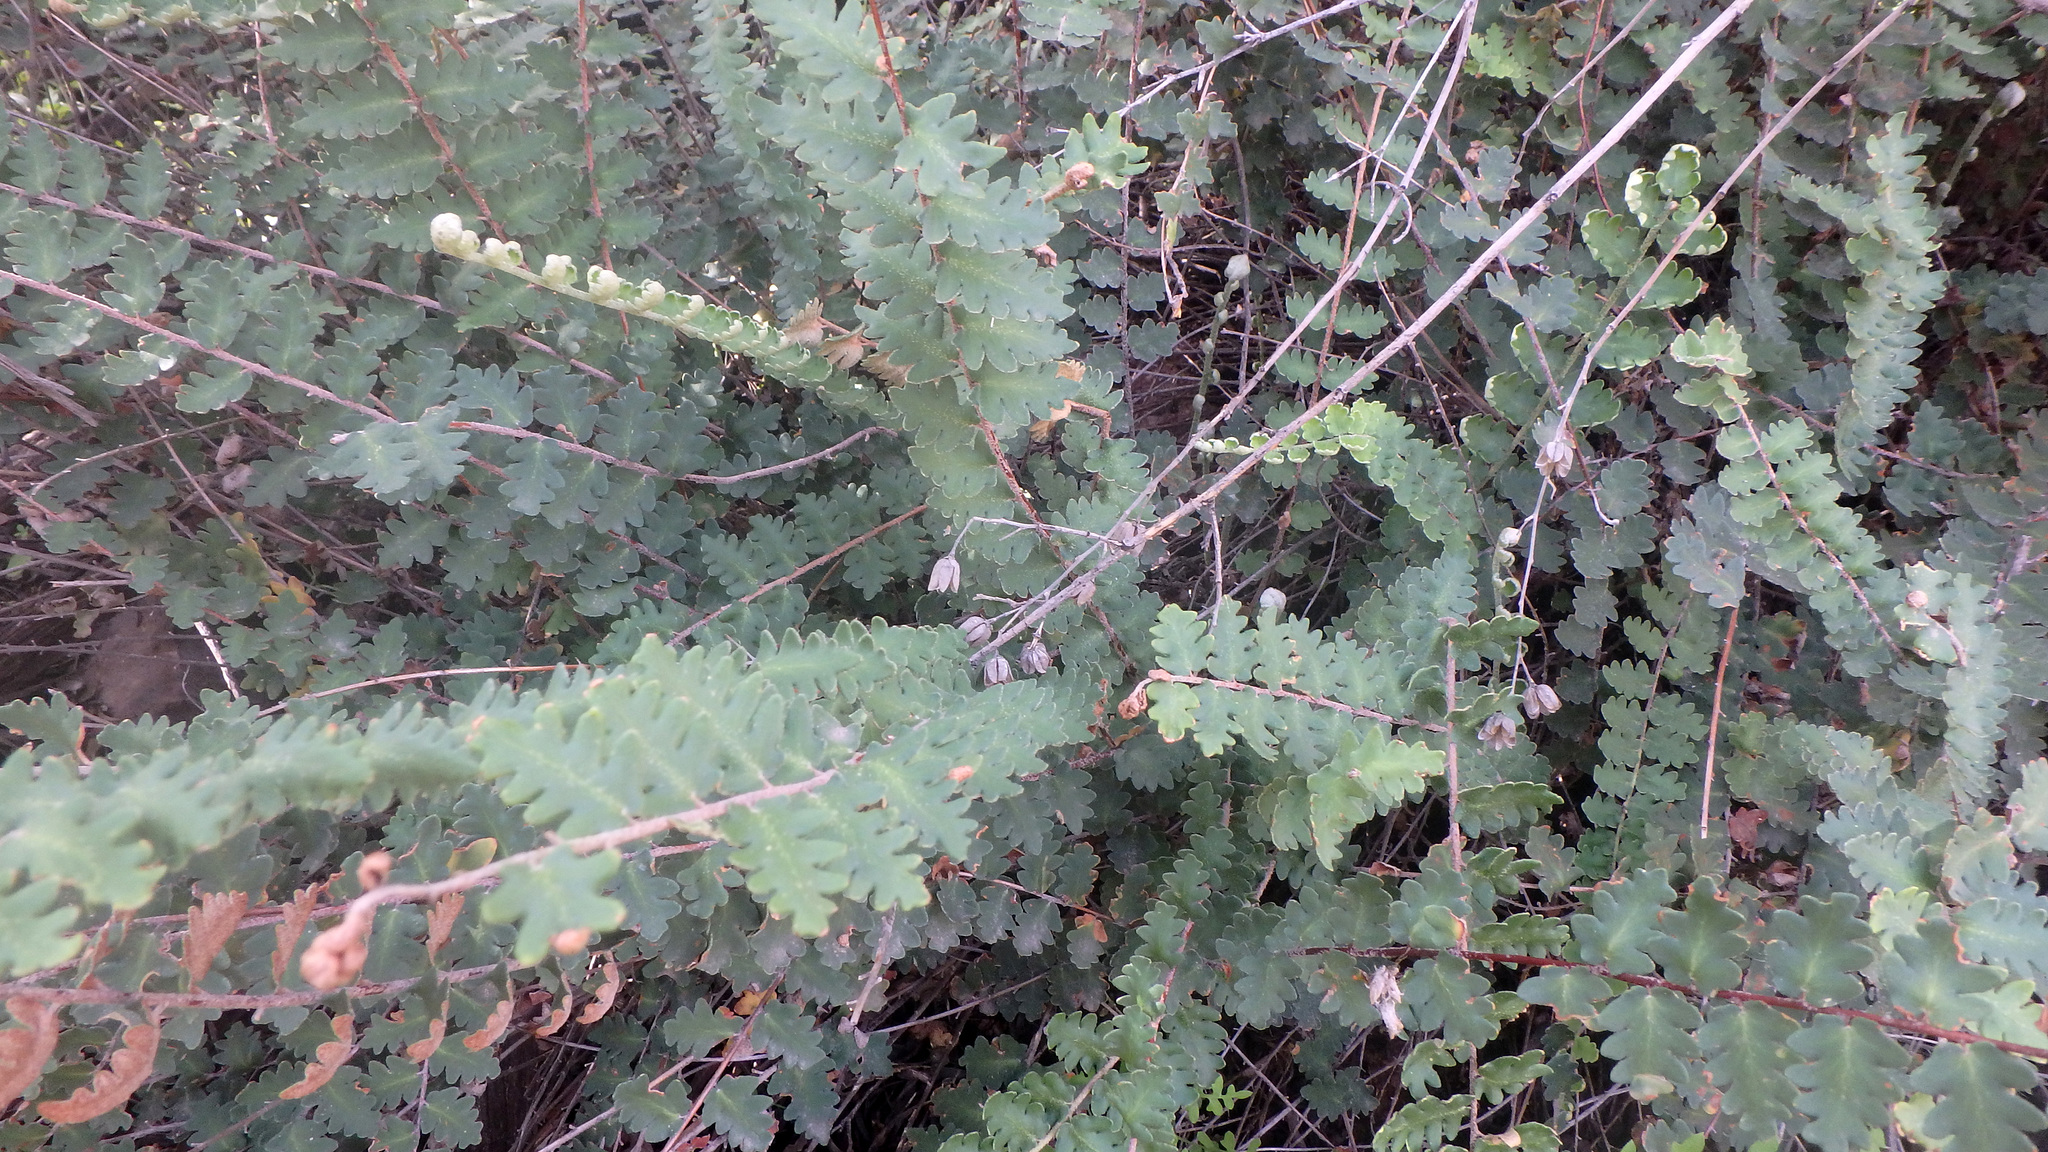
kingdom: Plantae
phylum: Tracheophyta
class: Polypodiopsida
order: Polypodiales
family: Pteridaceae
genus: Astrolepis
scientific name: Astrolepis sinuata
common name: Wavy scaly cloakfern
